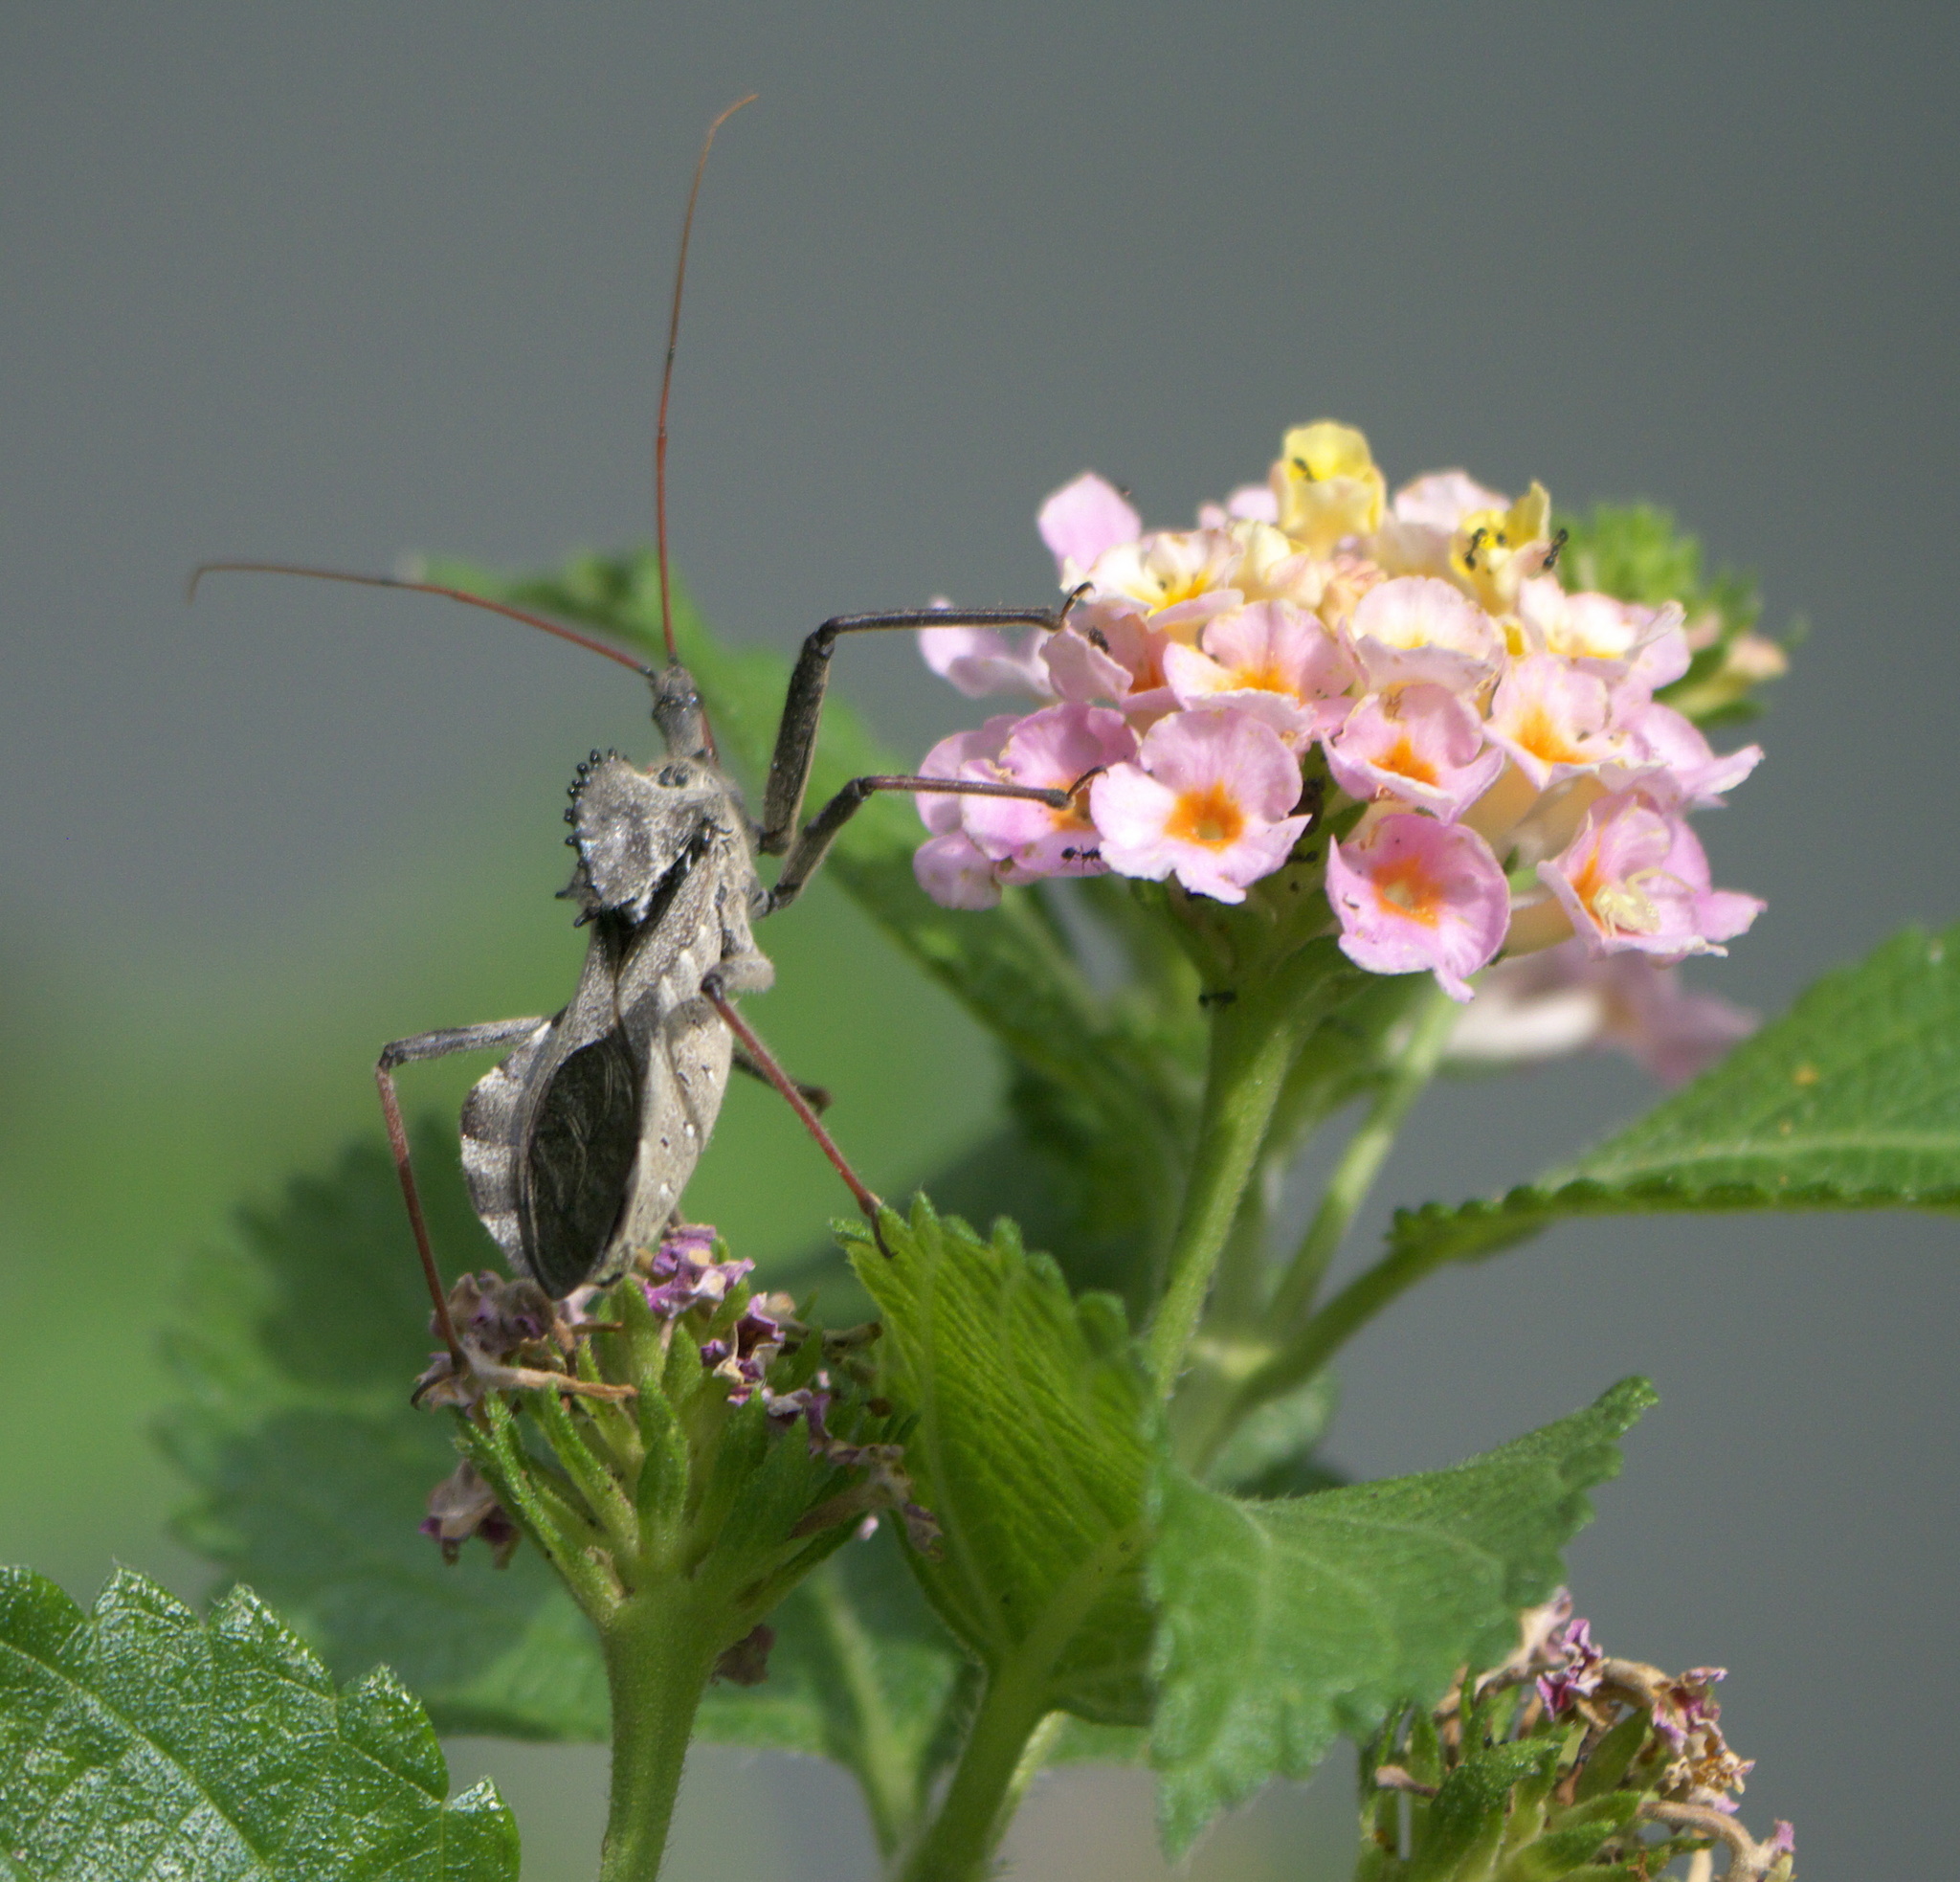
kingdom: Animalia
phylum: Arthropoda
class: Insecta
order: Hemiptera
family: Reduviidae
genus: Arilus
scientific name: Arilus cristatus
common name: North american wheel bug
